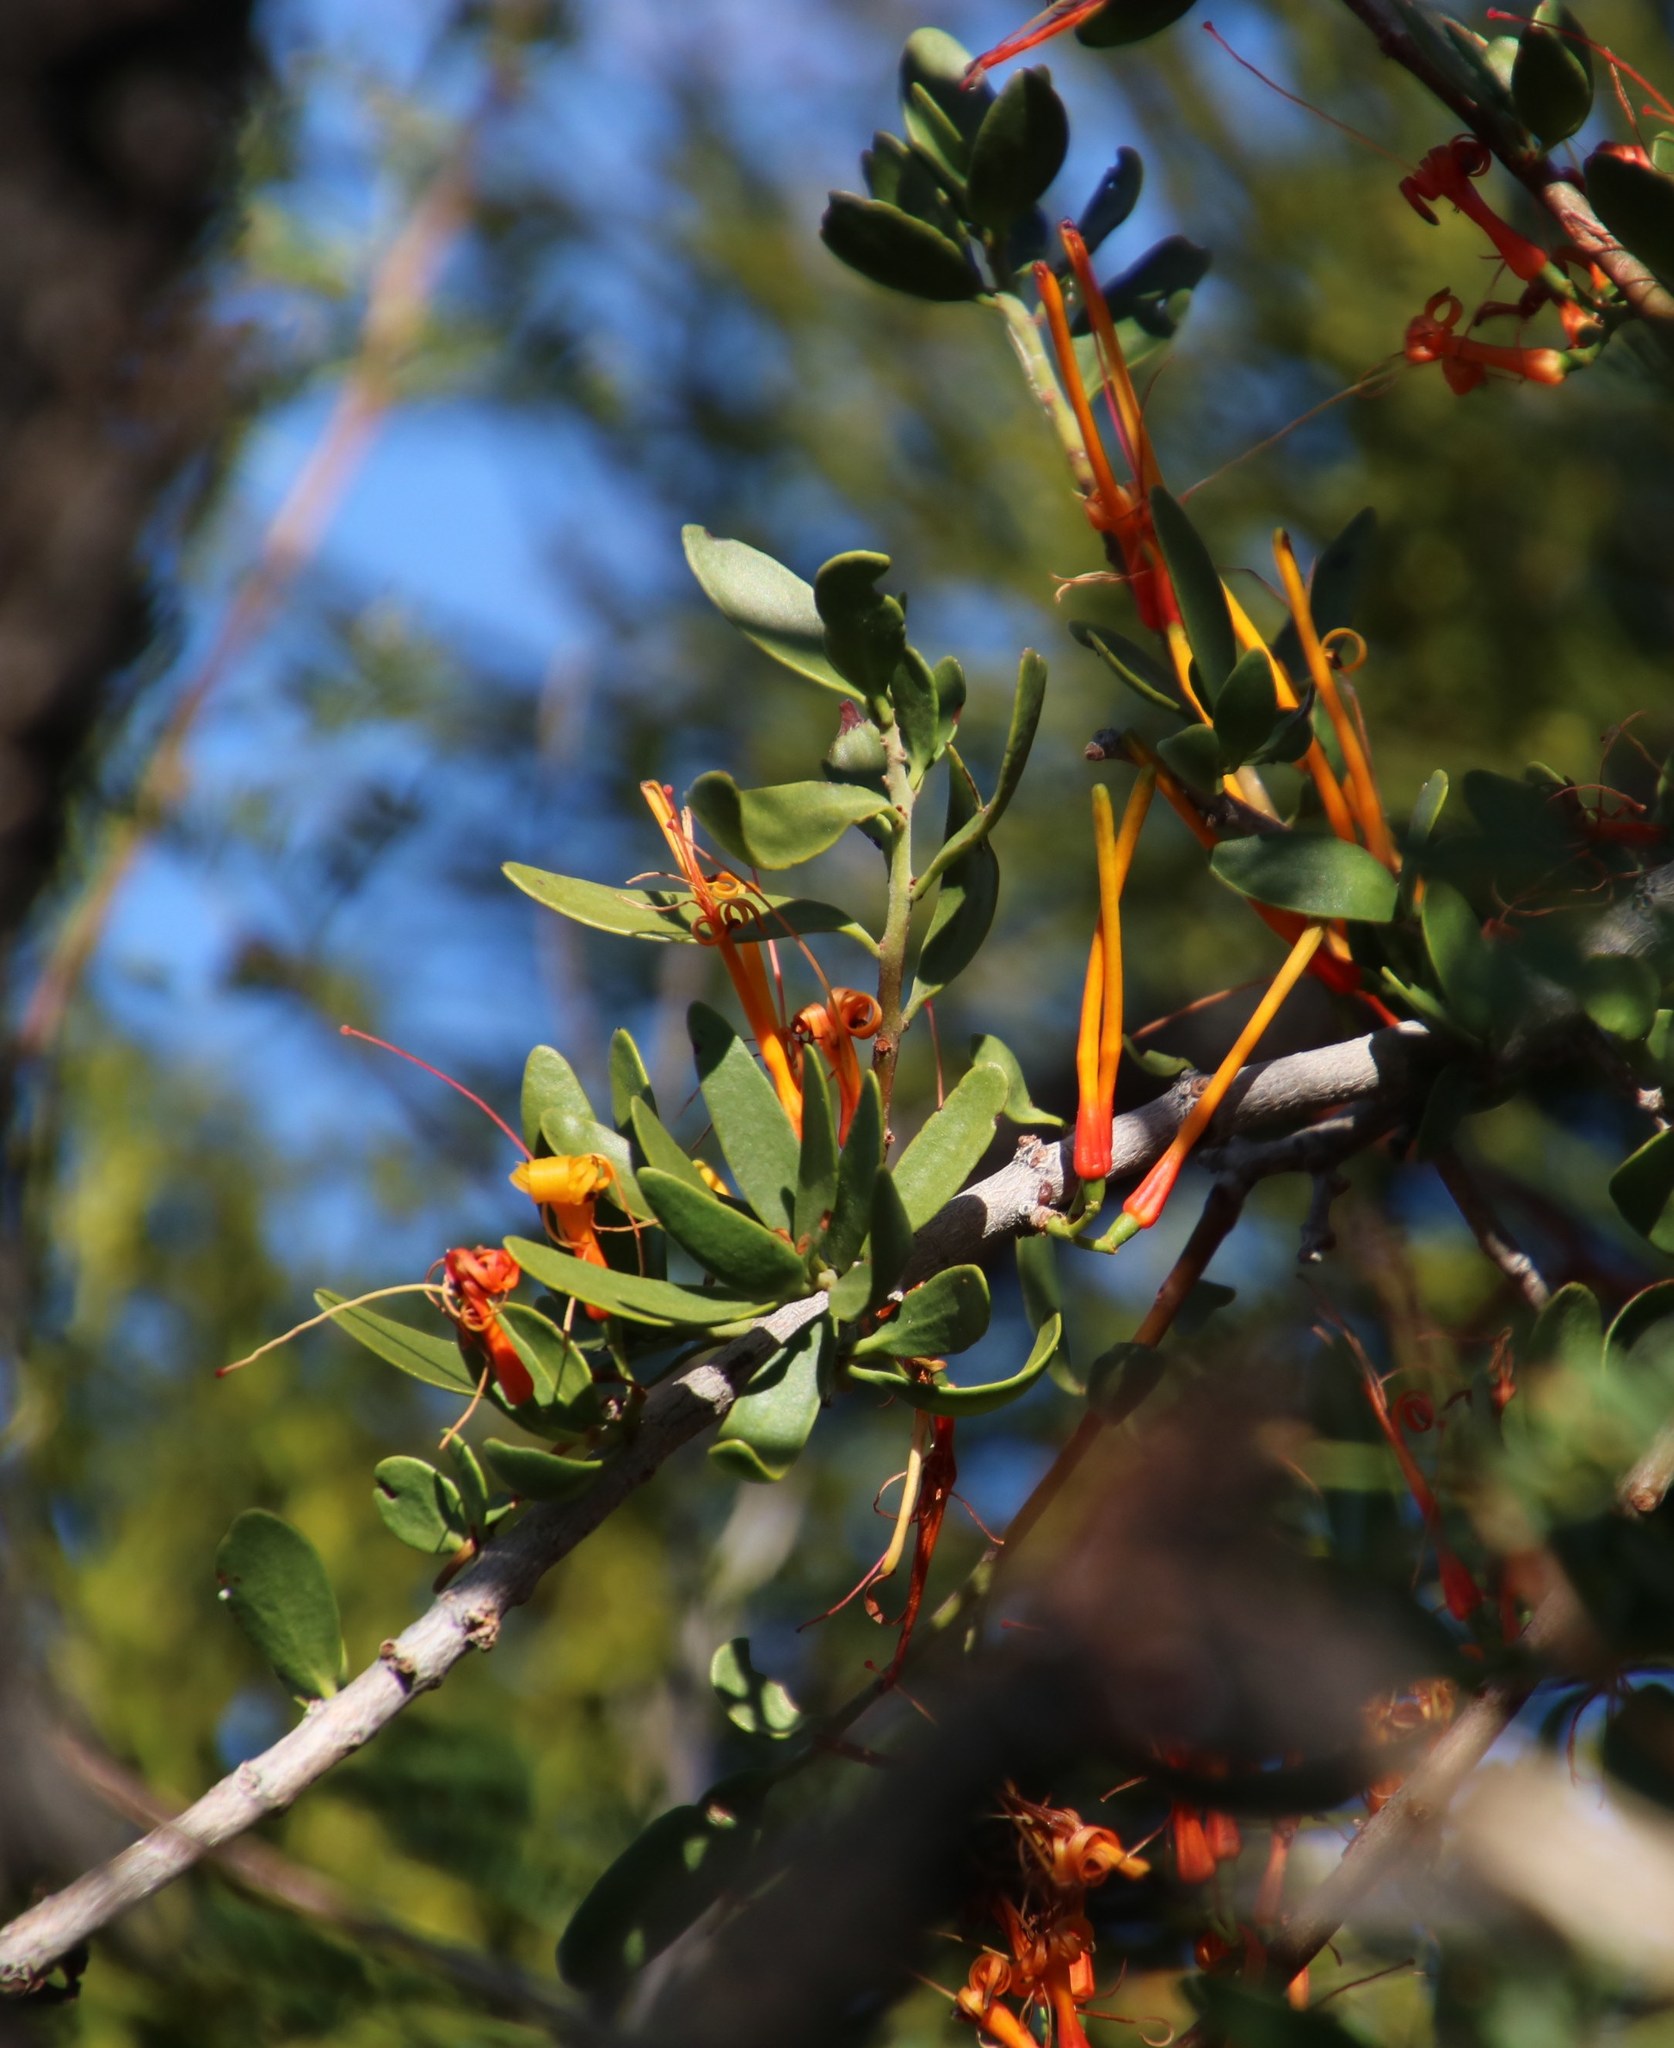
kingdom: Plantae
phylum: Tracheophyta
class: Magnoliopsida
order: Santalales
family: Loranthaceae
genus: Moquiniella
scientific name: Moquiniella rubra
